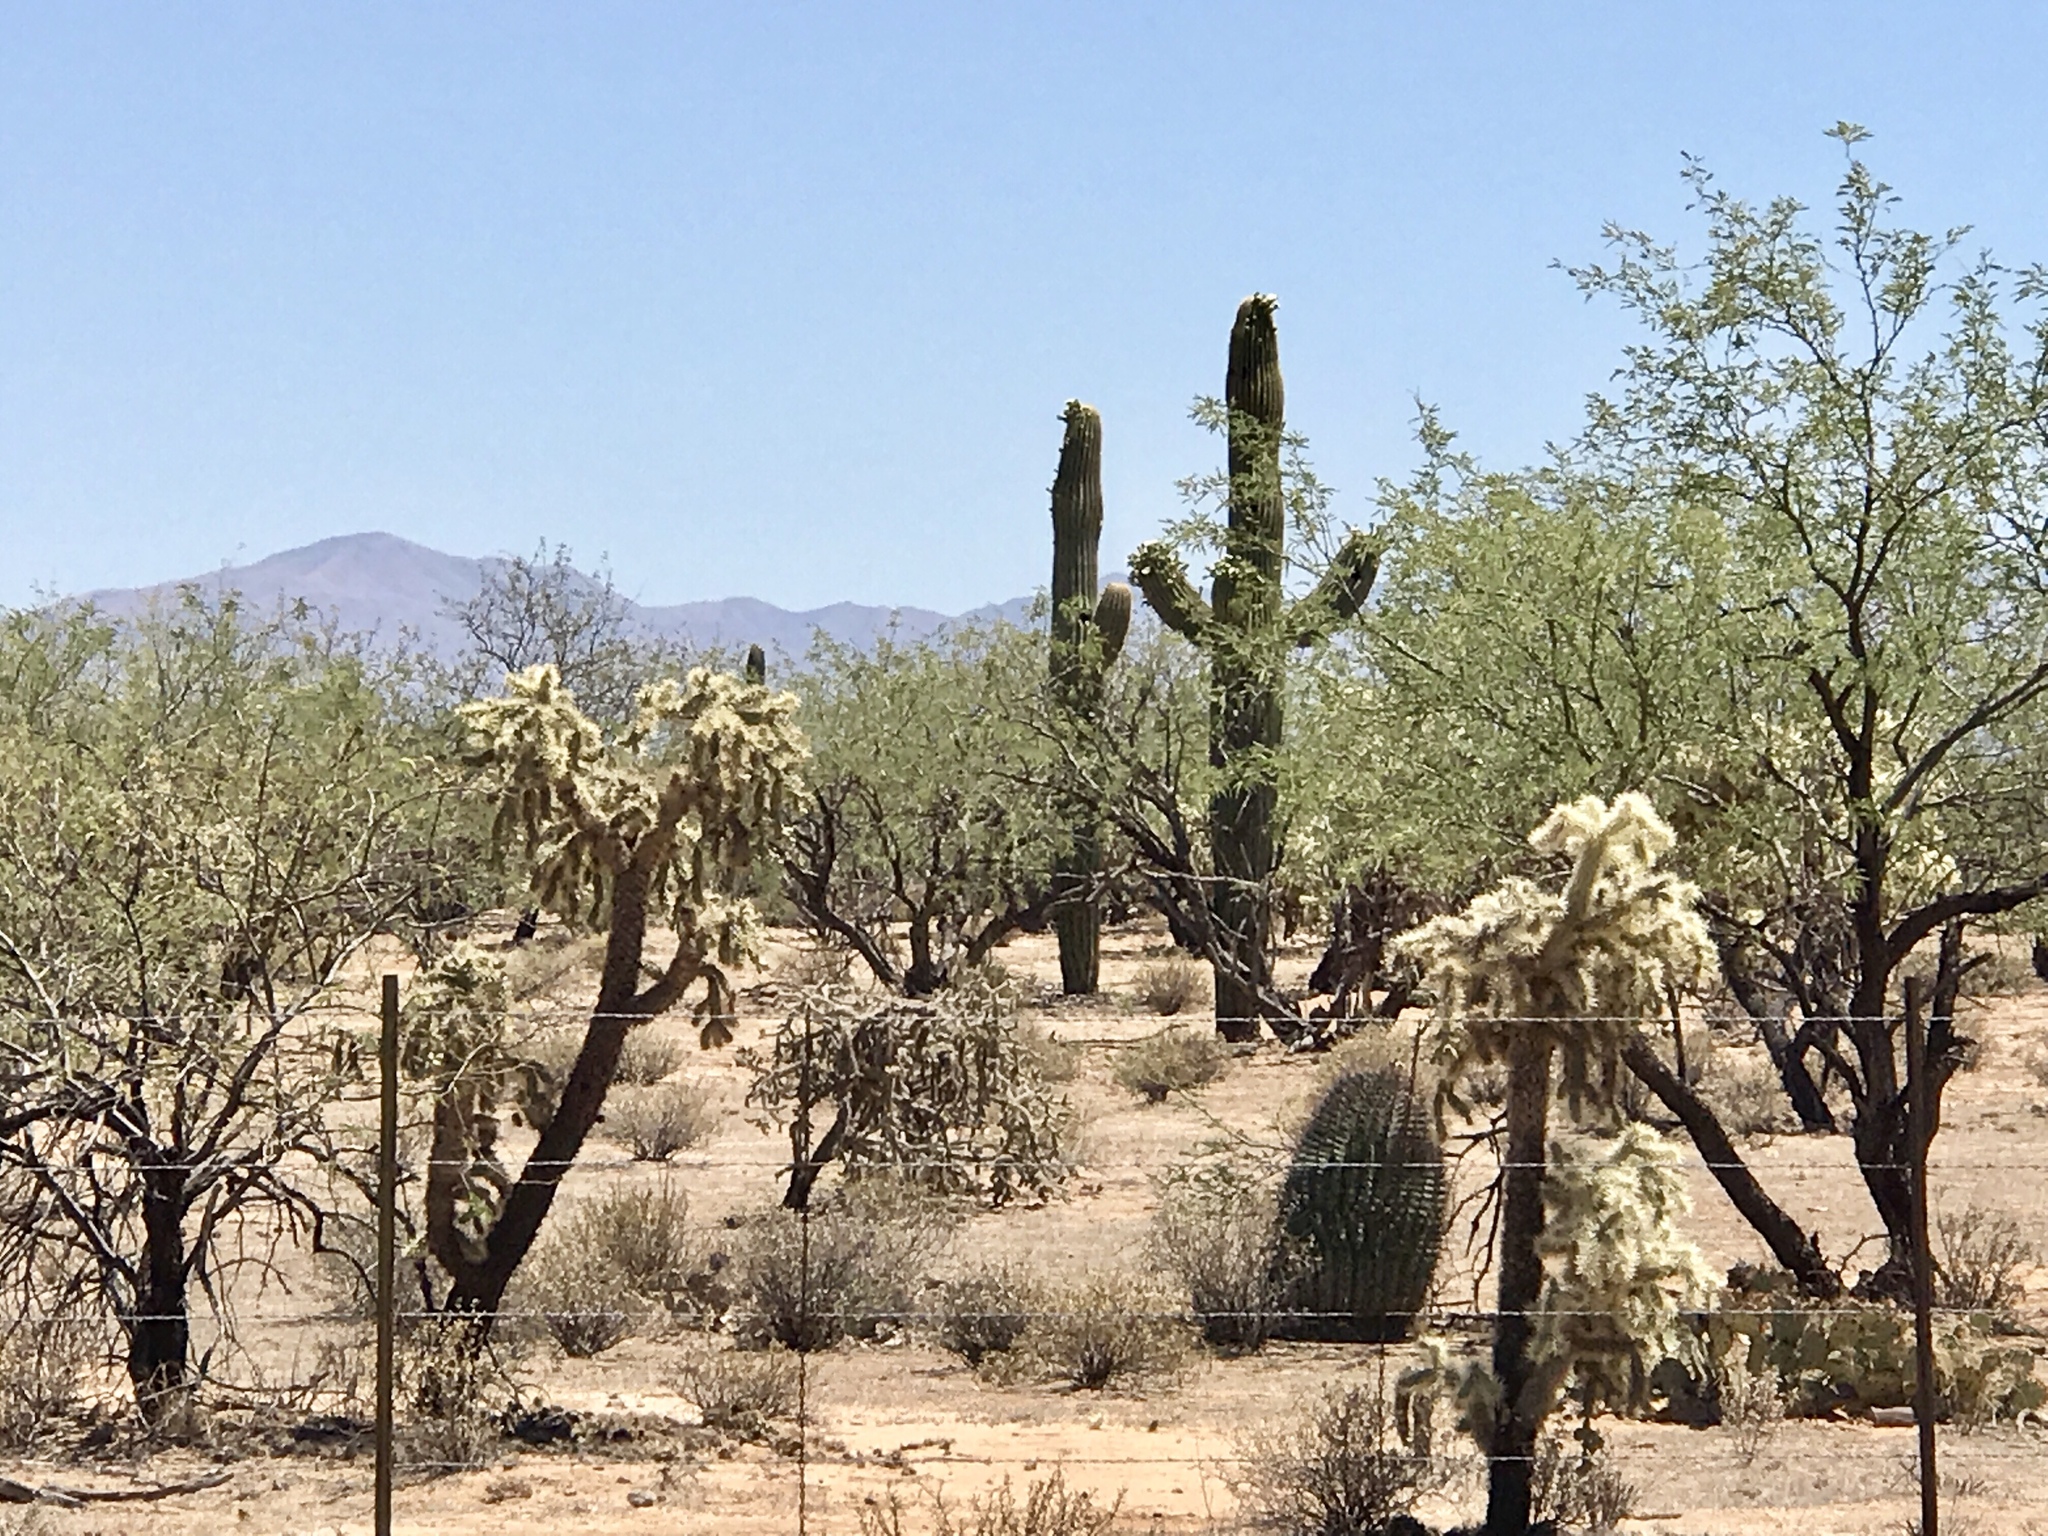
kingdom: Plantae
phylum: Tracheophyta
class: Magnoliopsida
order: Caryophyllales
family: Cactaceae
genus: Carnegiea
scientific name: Carnegiea gigantea
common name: Saguaro
